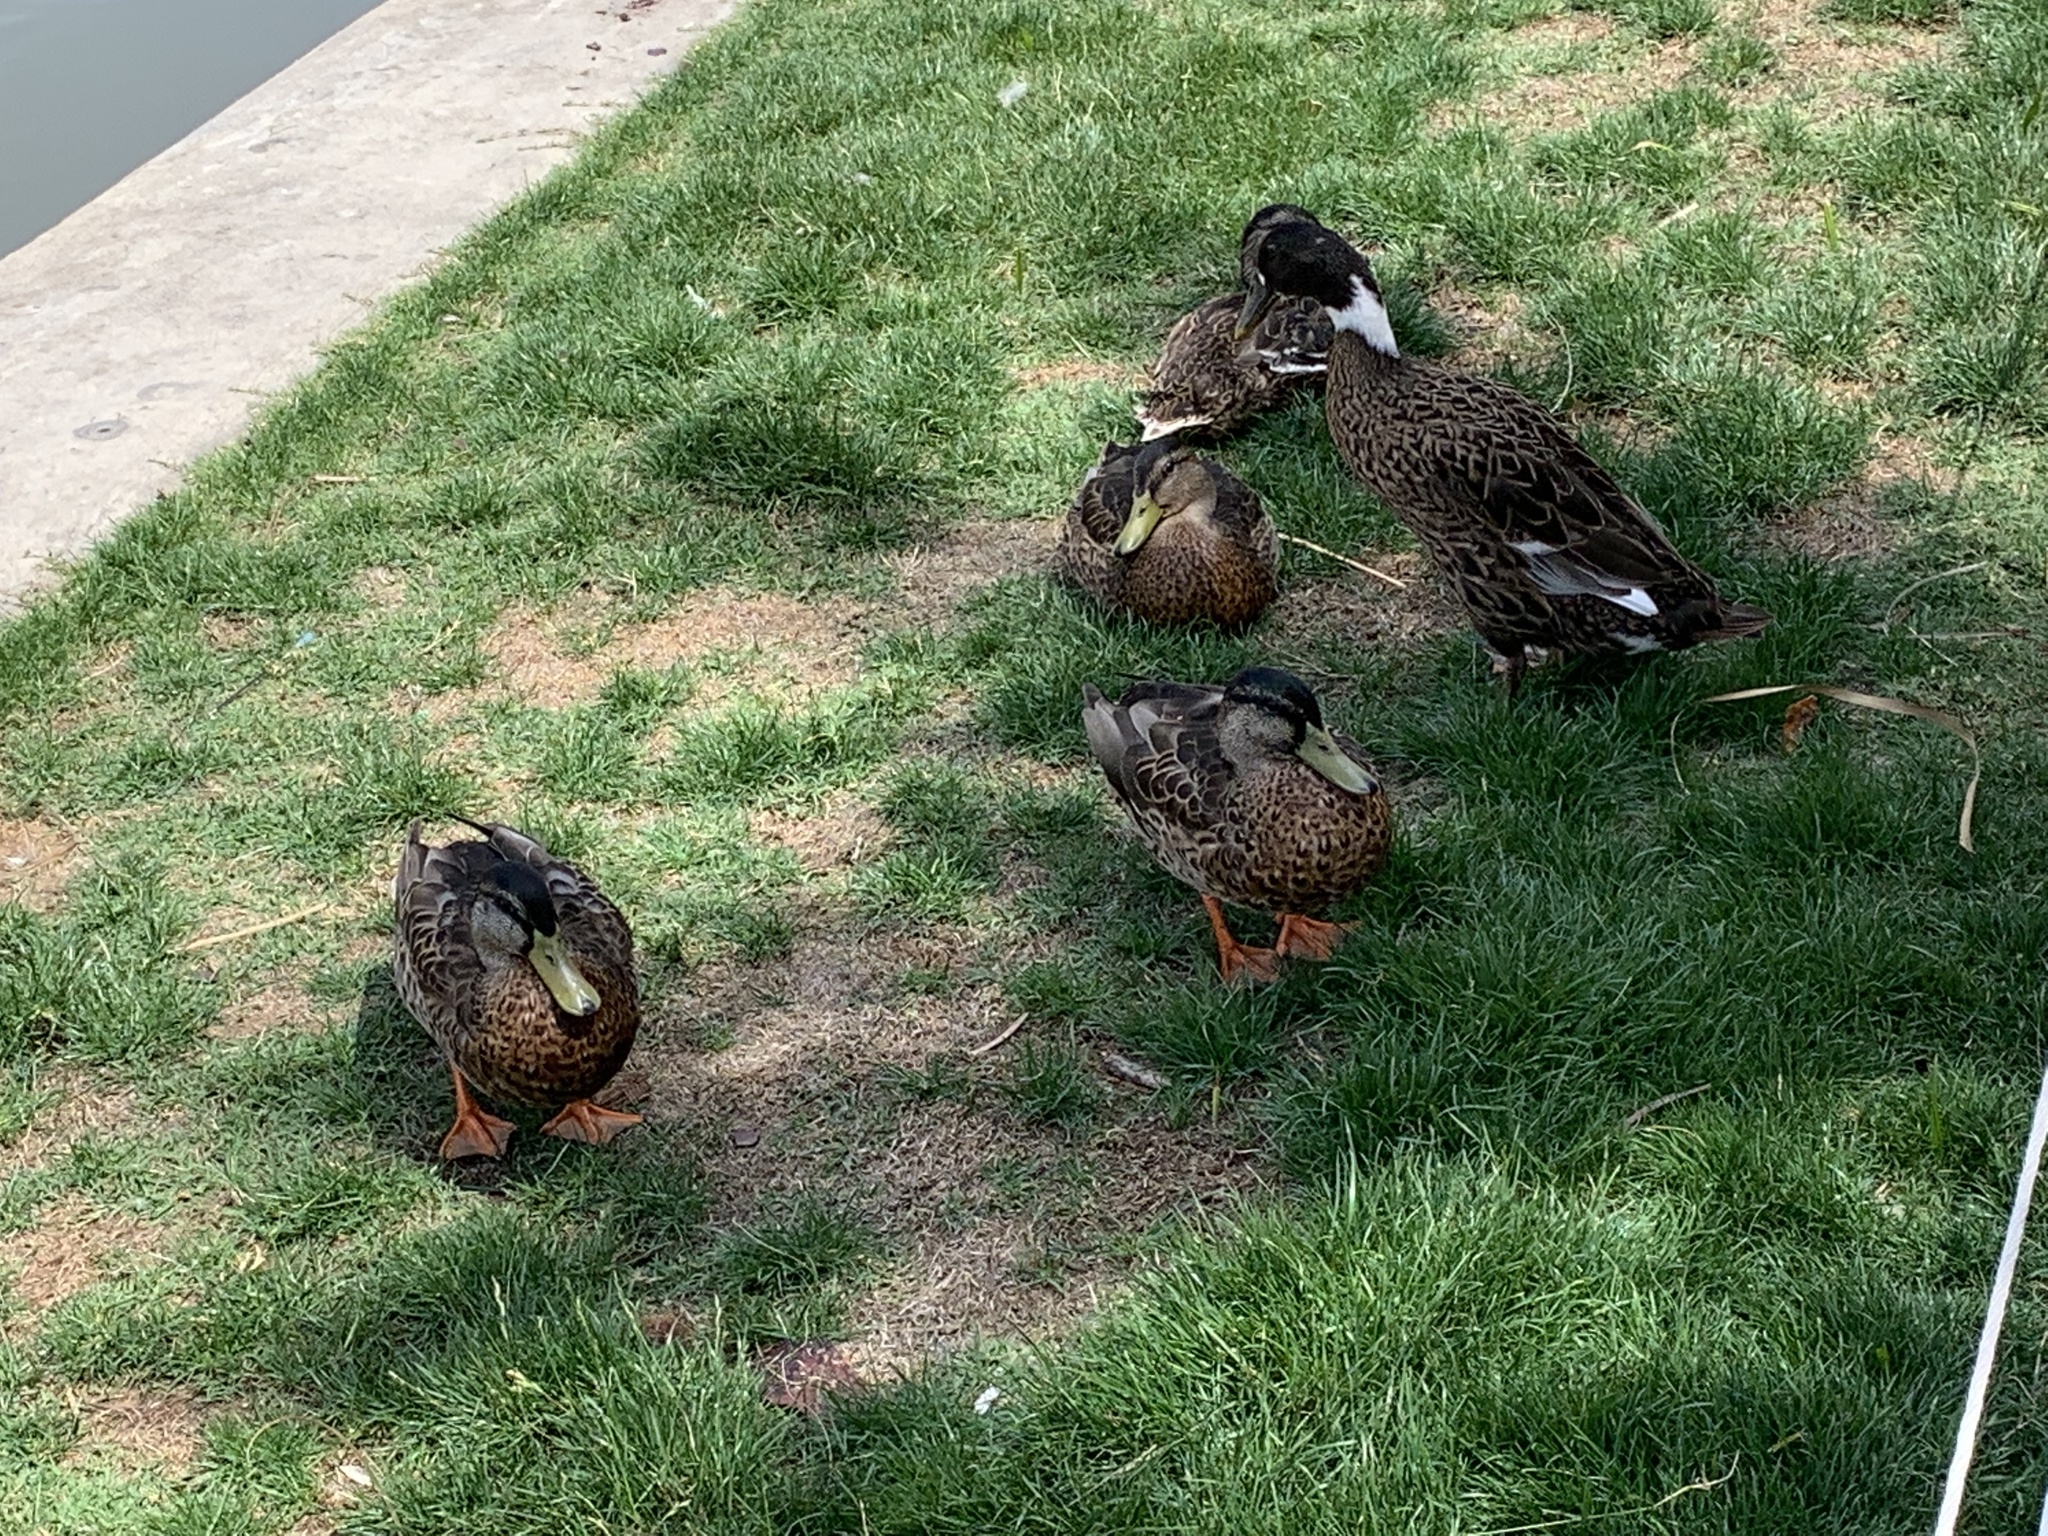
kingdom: Animalia
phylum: Chordata
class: Aves
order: Anseriformes
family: Anatidae
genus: Anas
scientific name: Anas platyrhynchos
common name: Mallard
